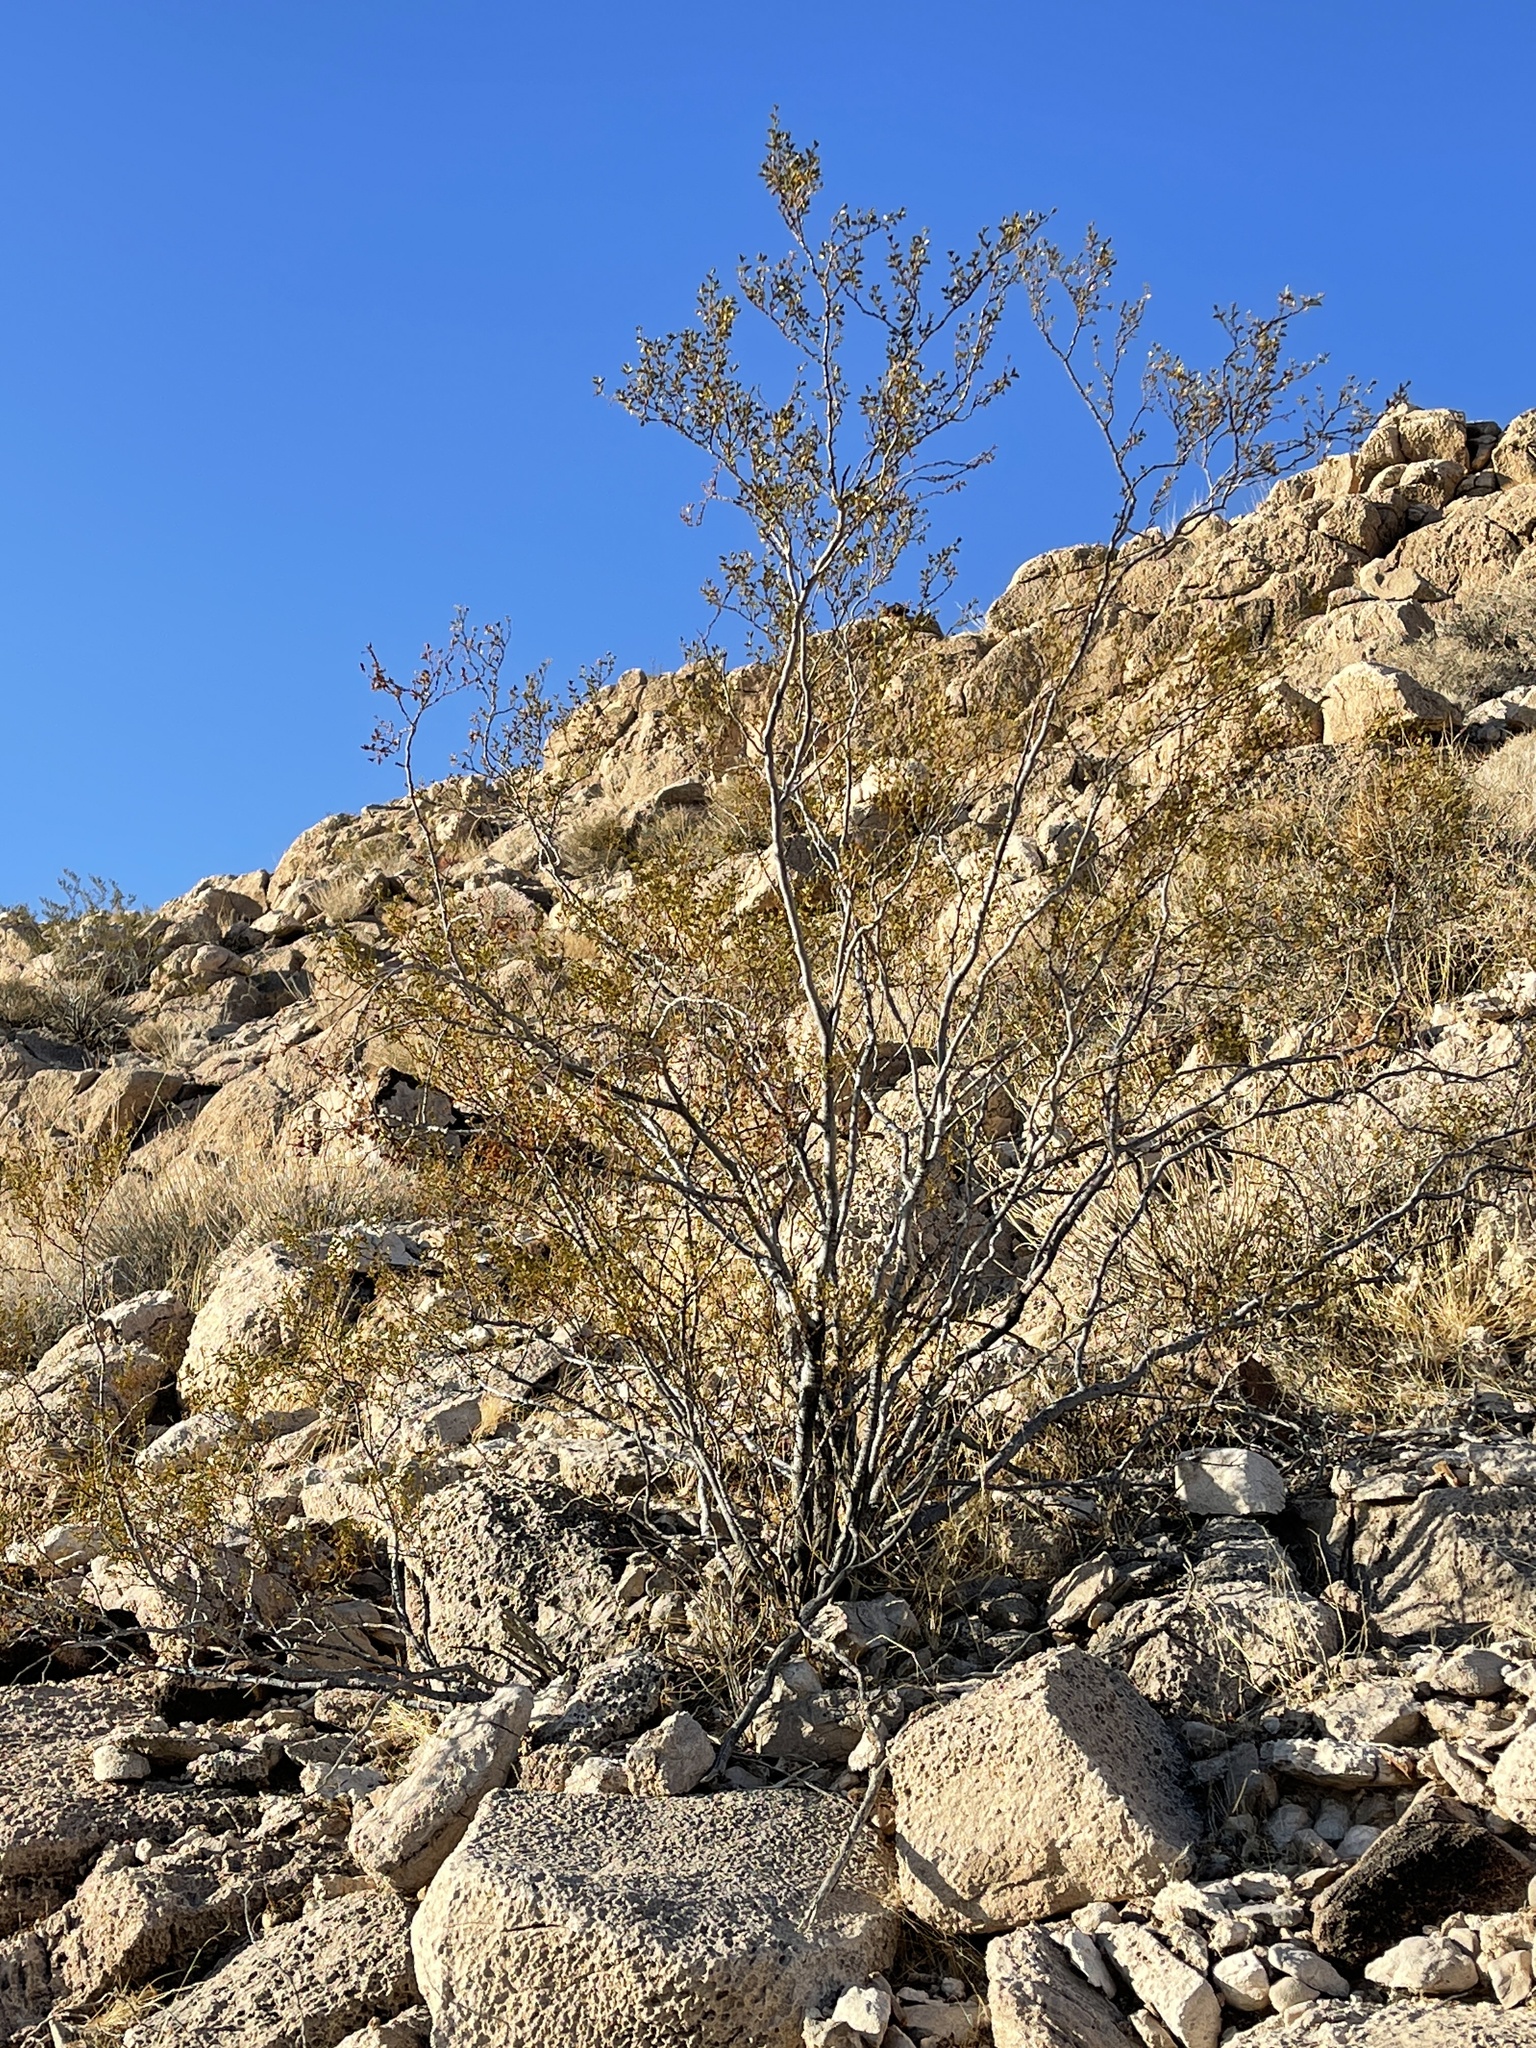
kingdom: Plantae
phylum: Tracheophyta
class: Magnoliopsida
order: Zygophyllales
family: Zygophyllaceae
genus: Larrea
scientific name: Larrea tridentata
